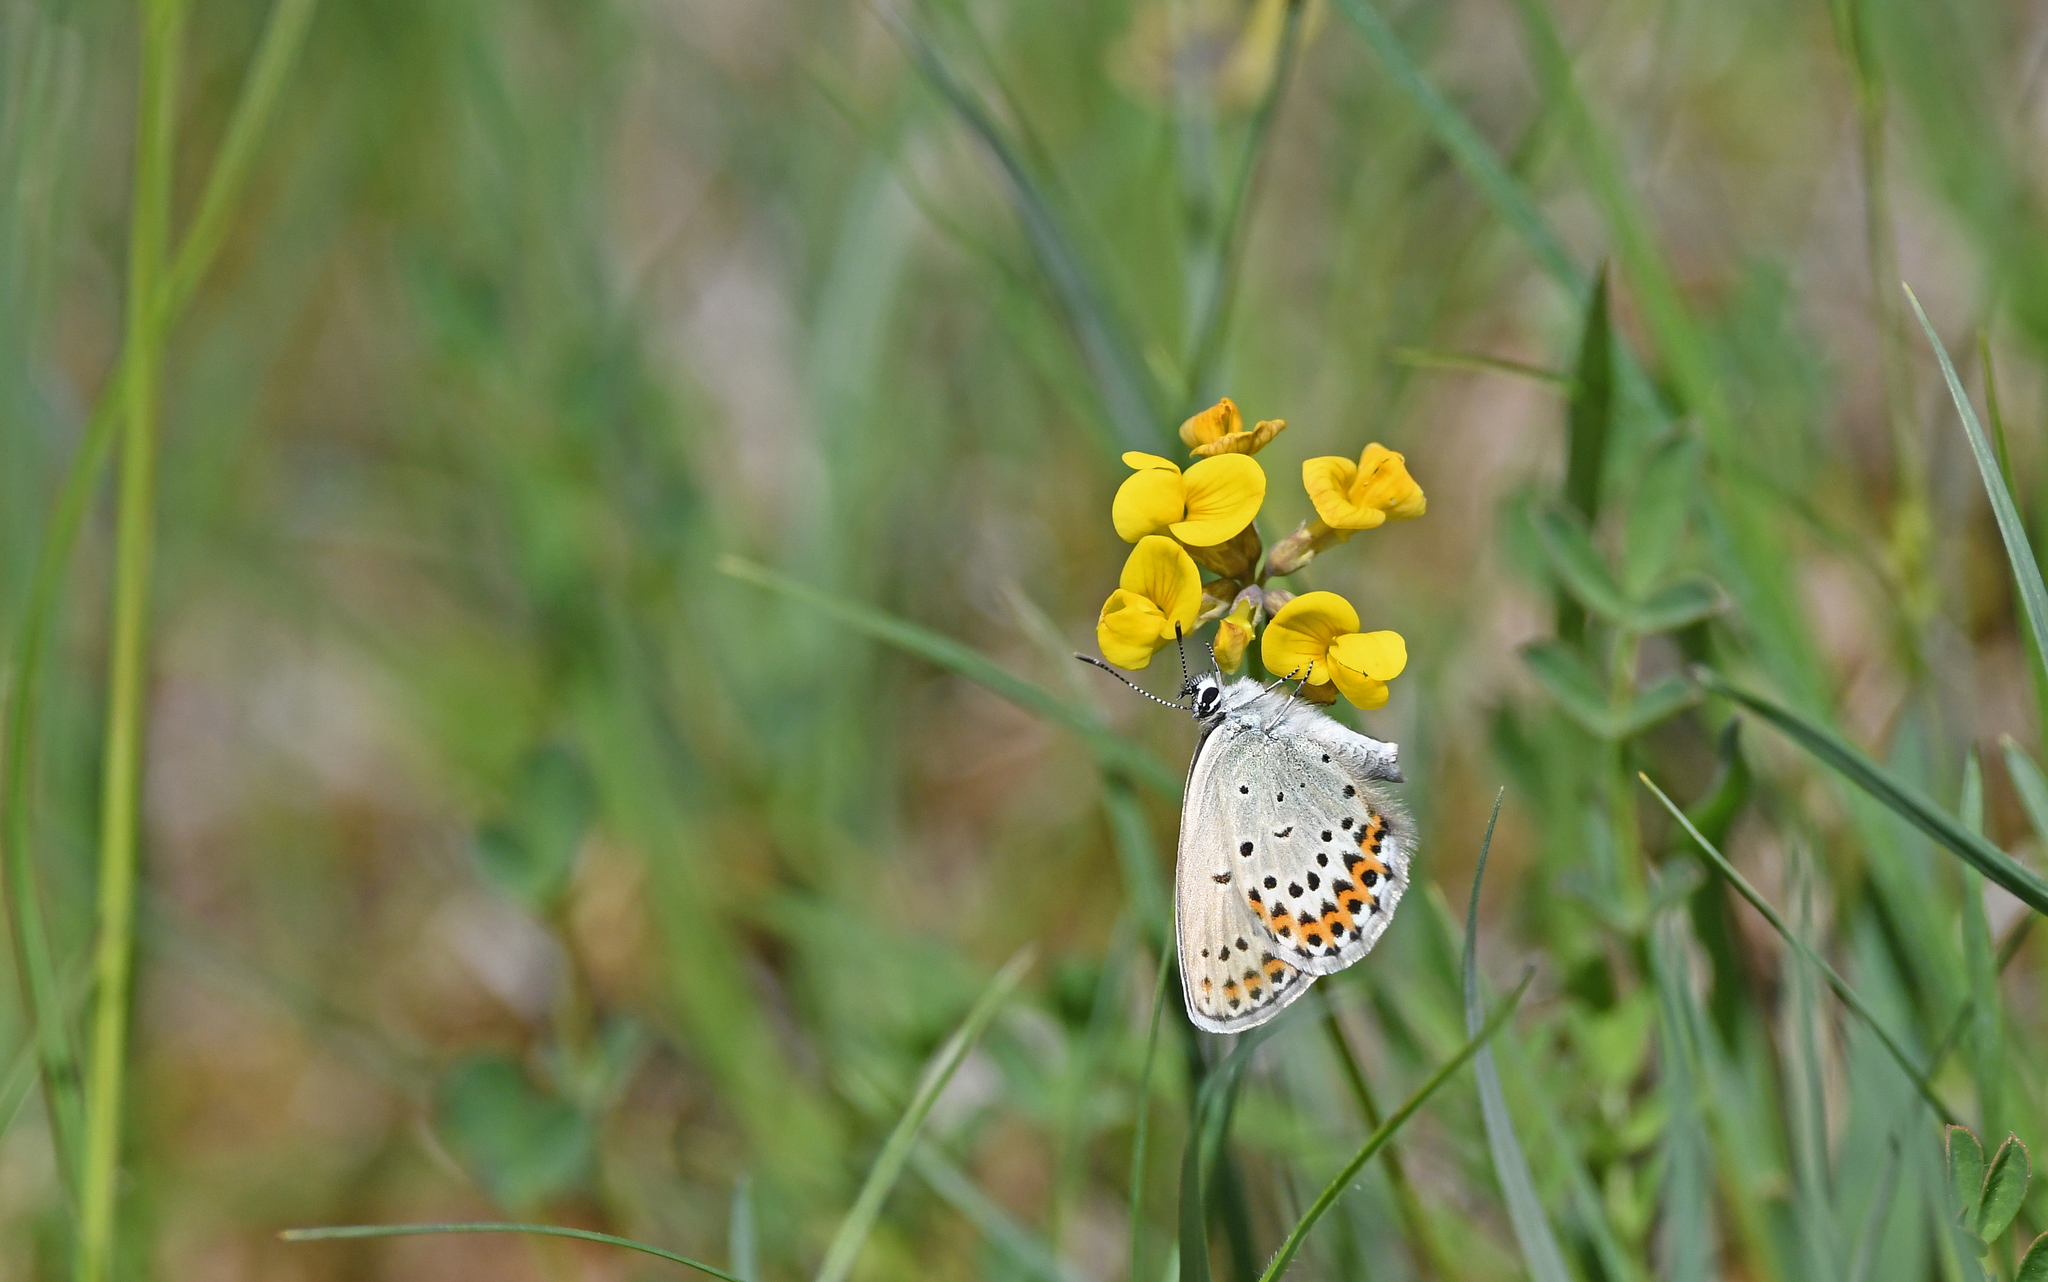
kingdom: Animalia
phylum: Arthropoda
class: Insecta
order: Lepidoptera
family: Lycaenidae
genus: Lycaeides
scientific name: Lycaeides idas
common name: Northern blue
